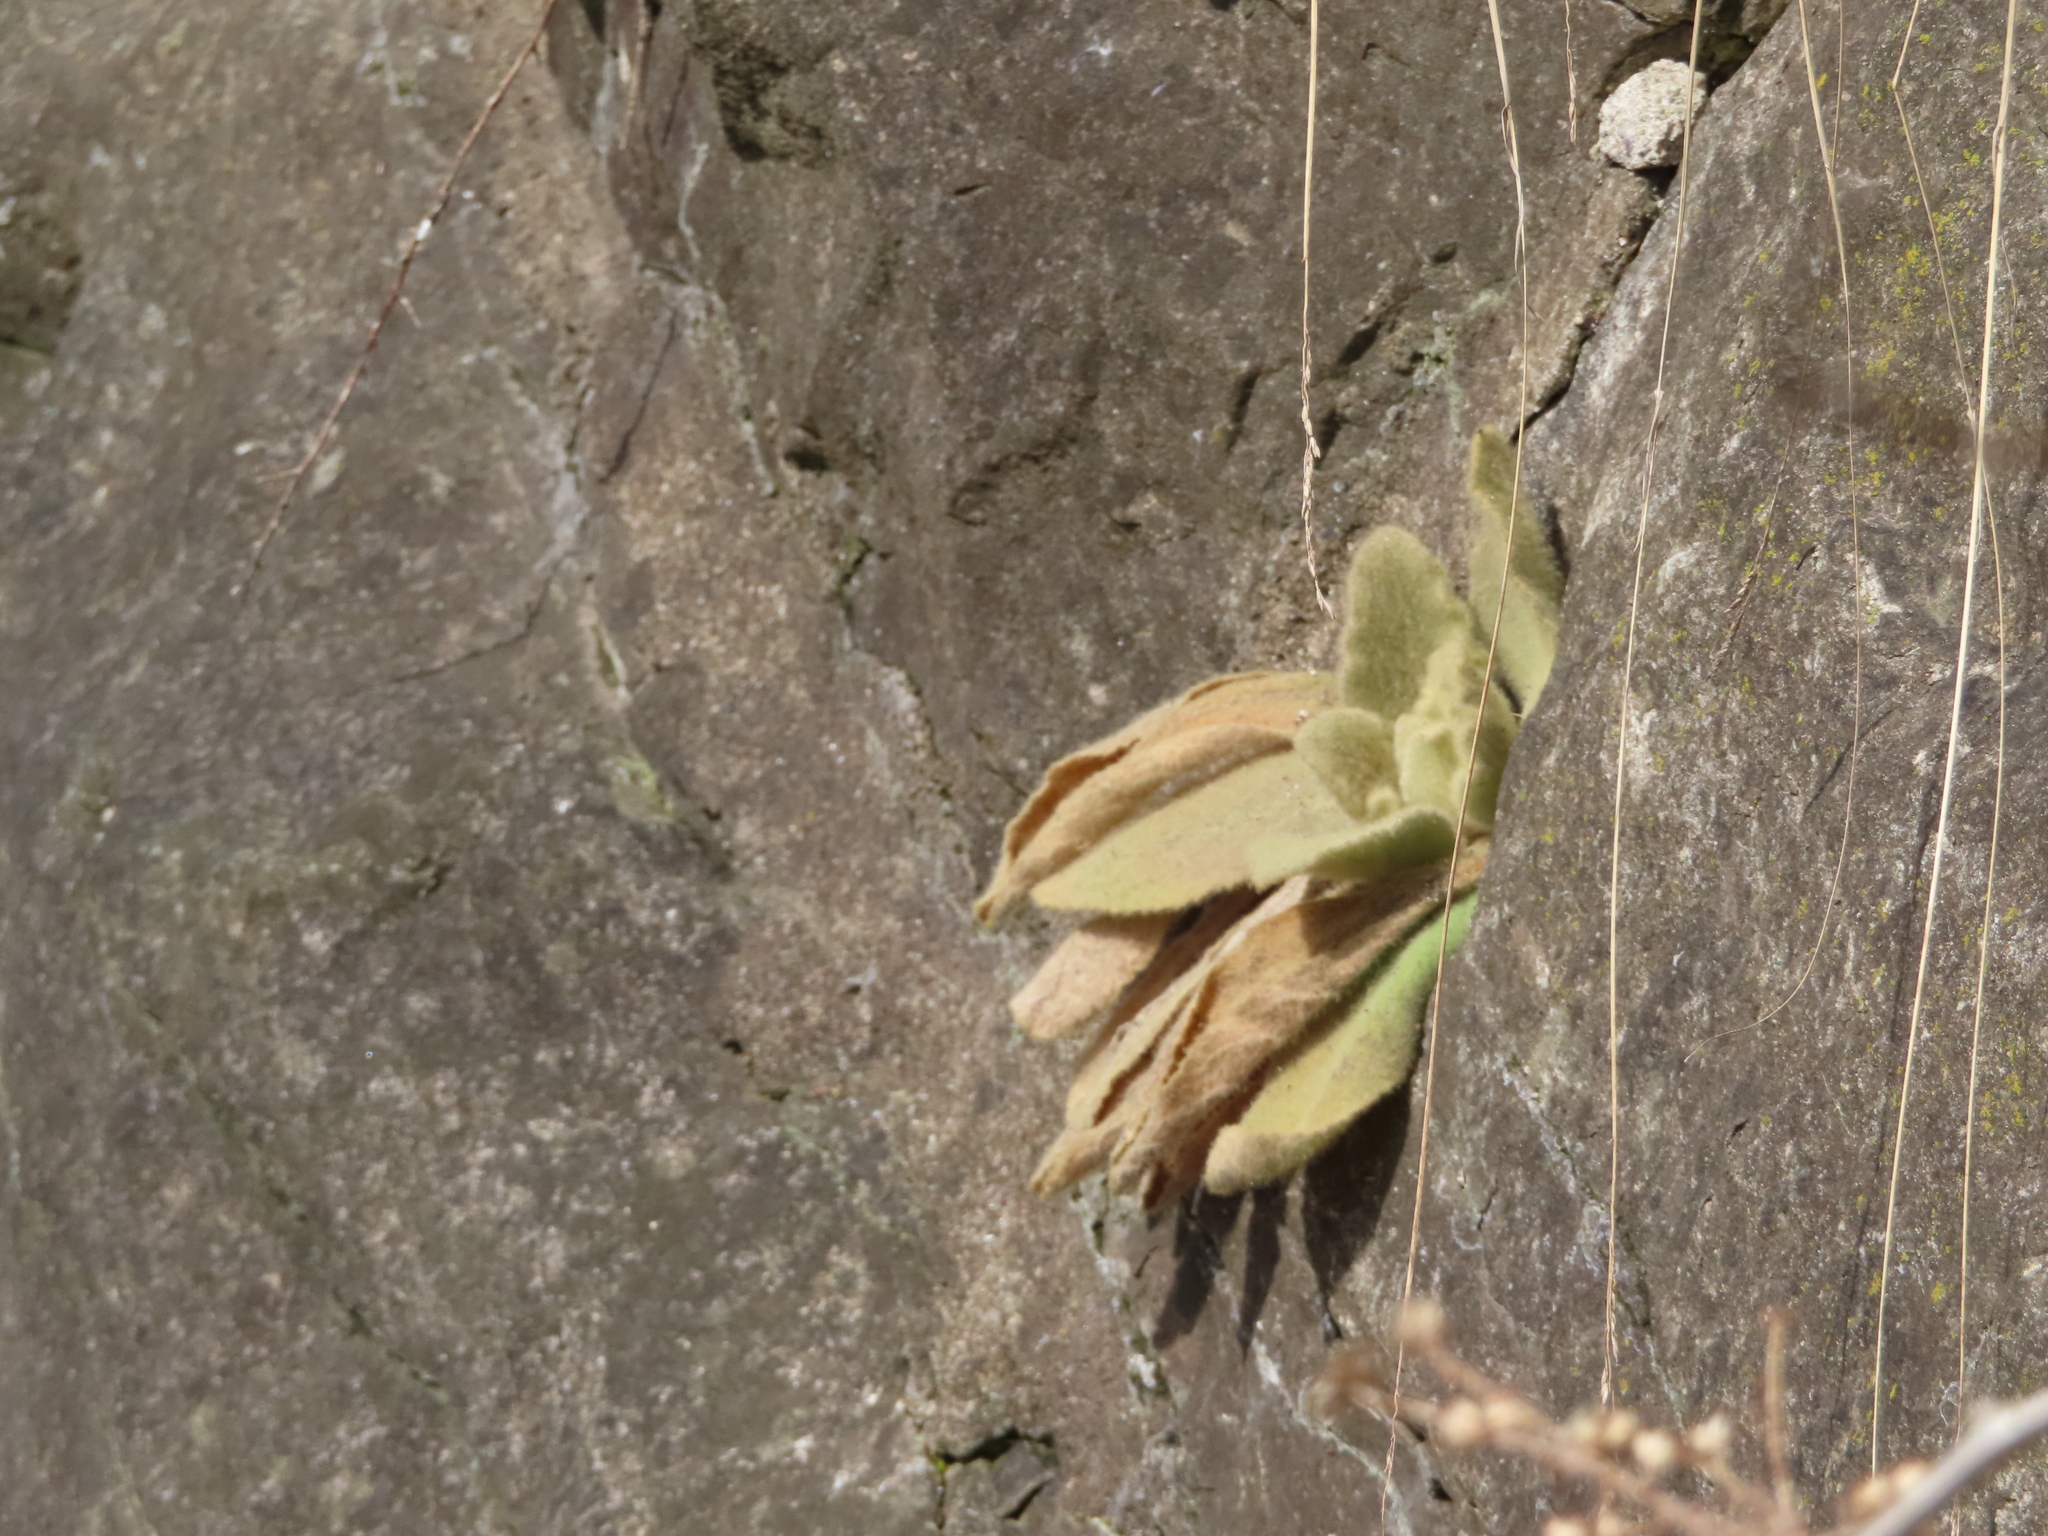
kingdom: Plantae
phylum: Tracheophyta
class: Magnoliopsida
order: Lamiales
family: Scrophulariaceae
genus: Verbascum
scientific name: Verbascum thapsus
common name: Common mullein
